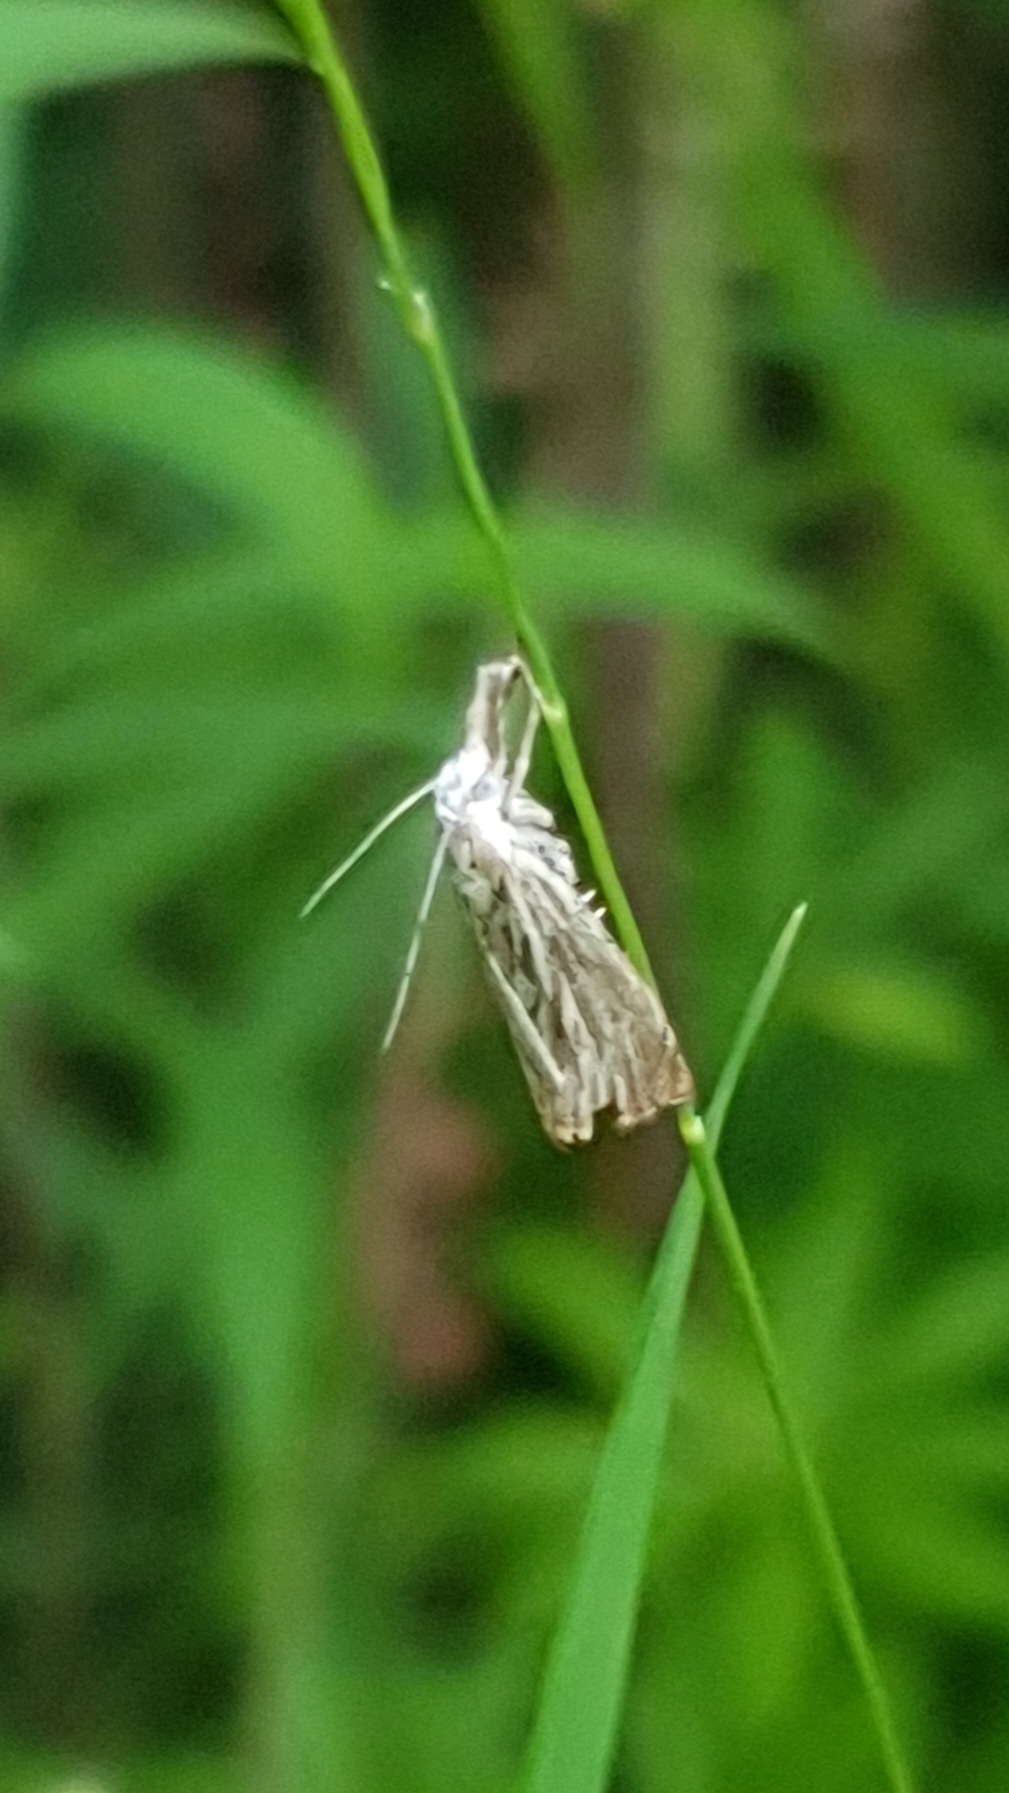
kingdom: Animalia
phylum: Arthropoda
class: Insecta
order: Lepidoptera
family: Crambidae
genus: Crambus
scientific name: Crambus nemorella
